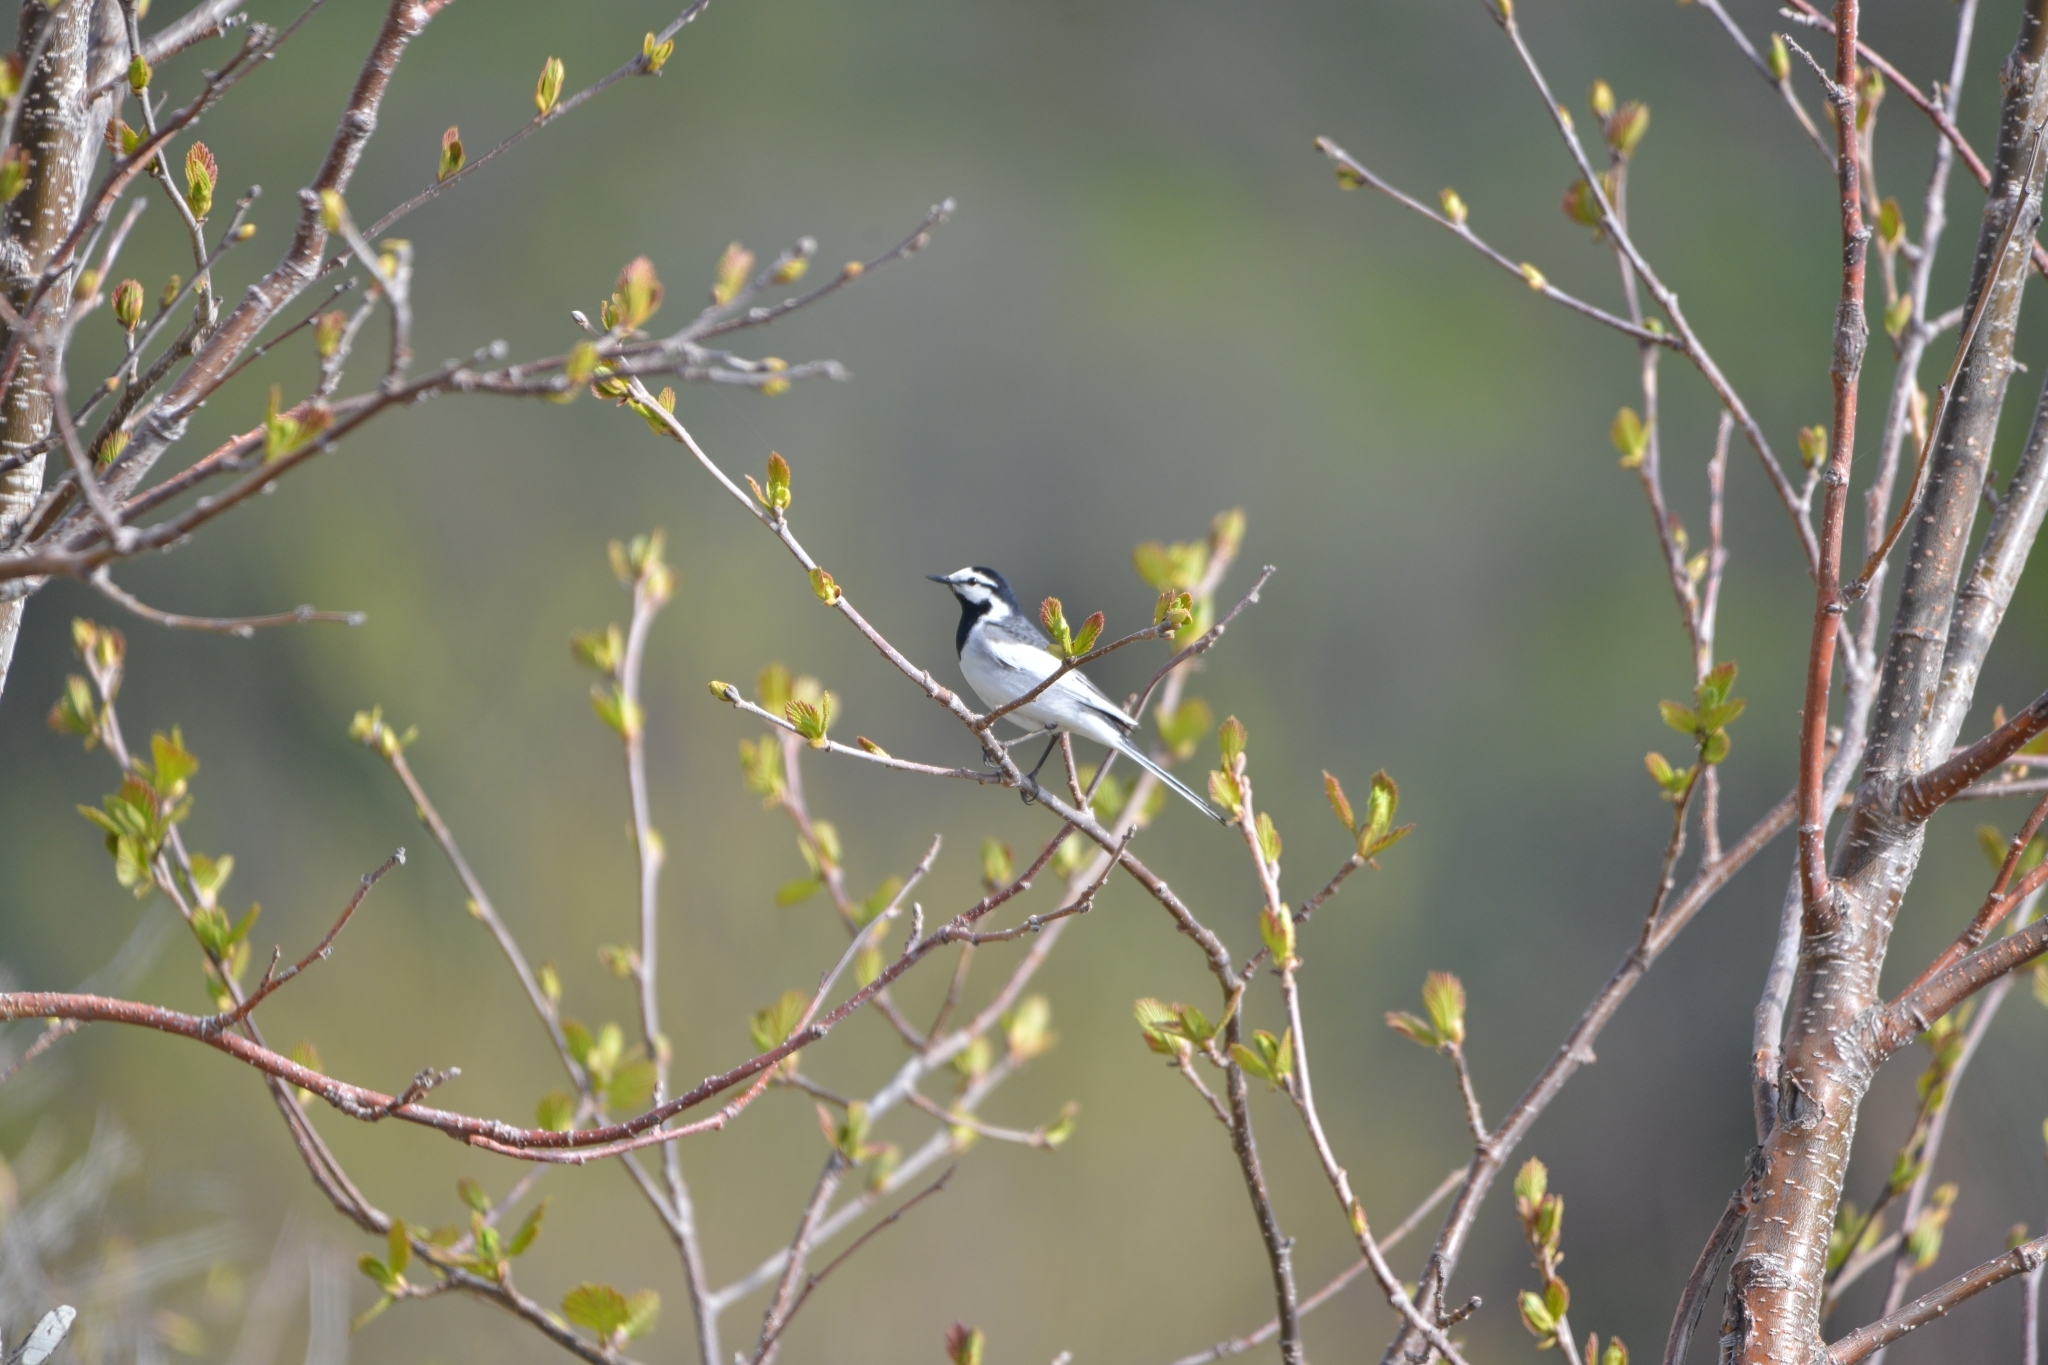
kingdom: Animalia
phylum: Chordata
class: Aves
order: Passeriformes
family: Motacillidae
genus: Motacilla
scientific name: Motacilla alba
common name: White wagtail
